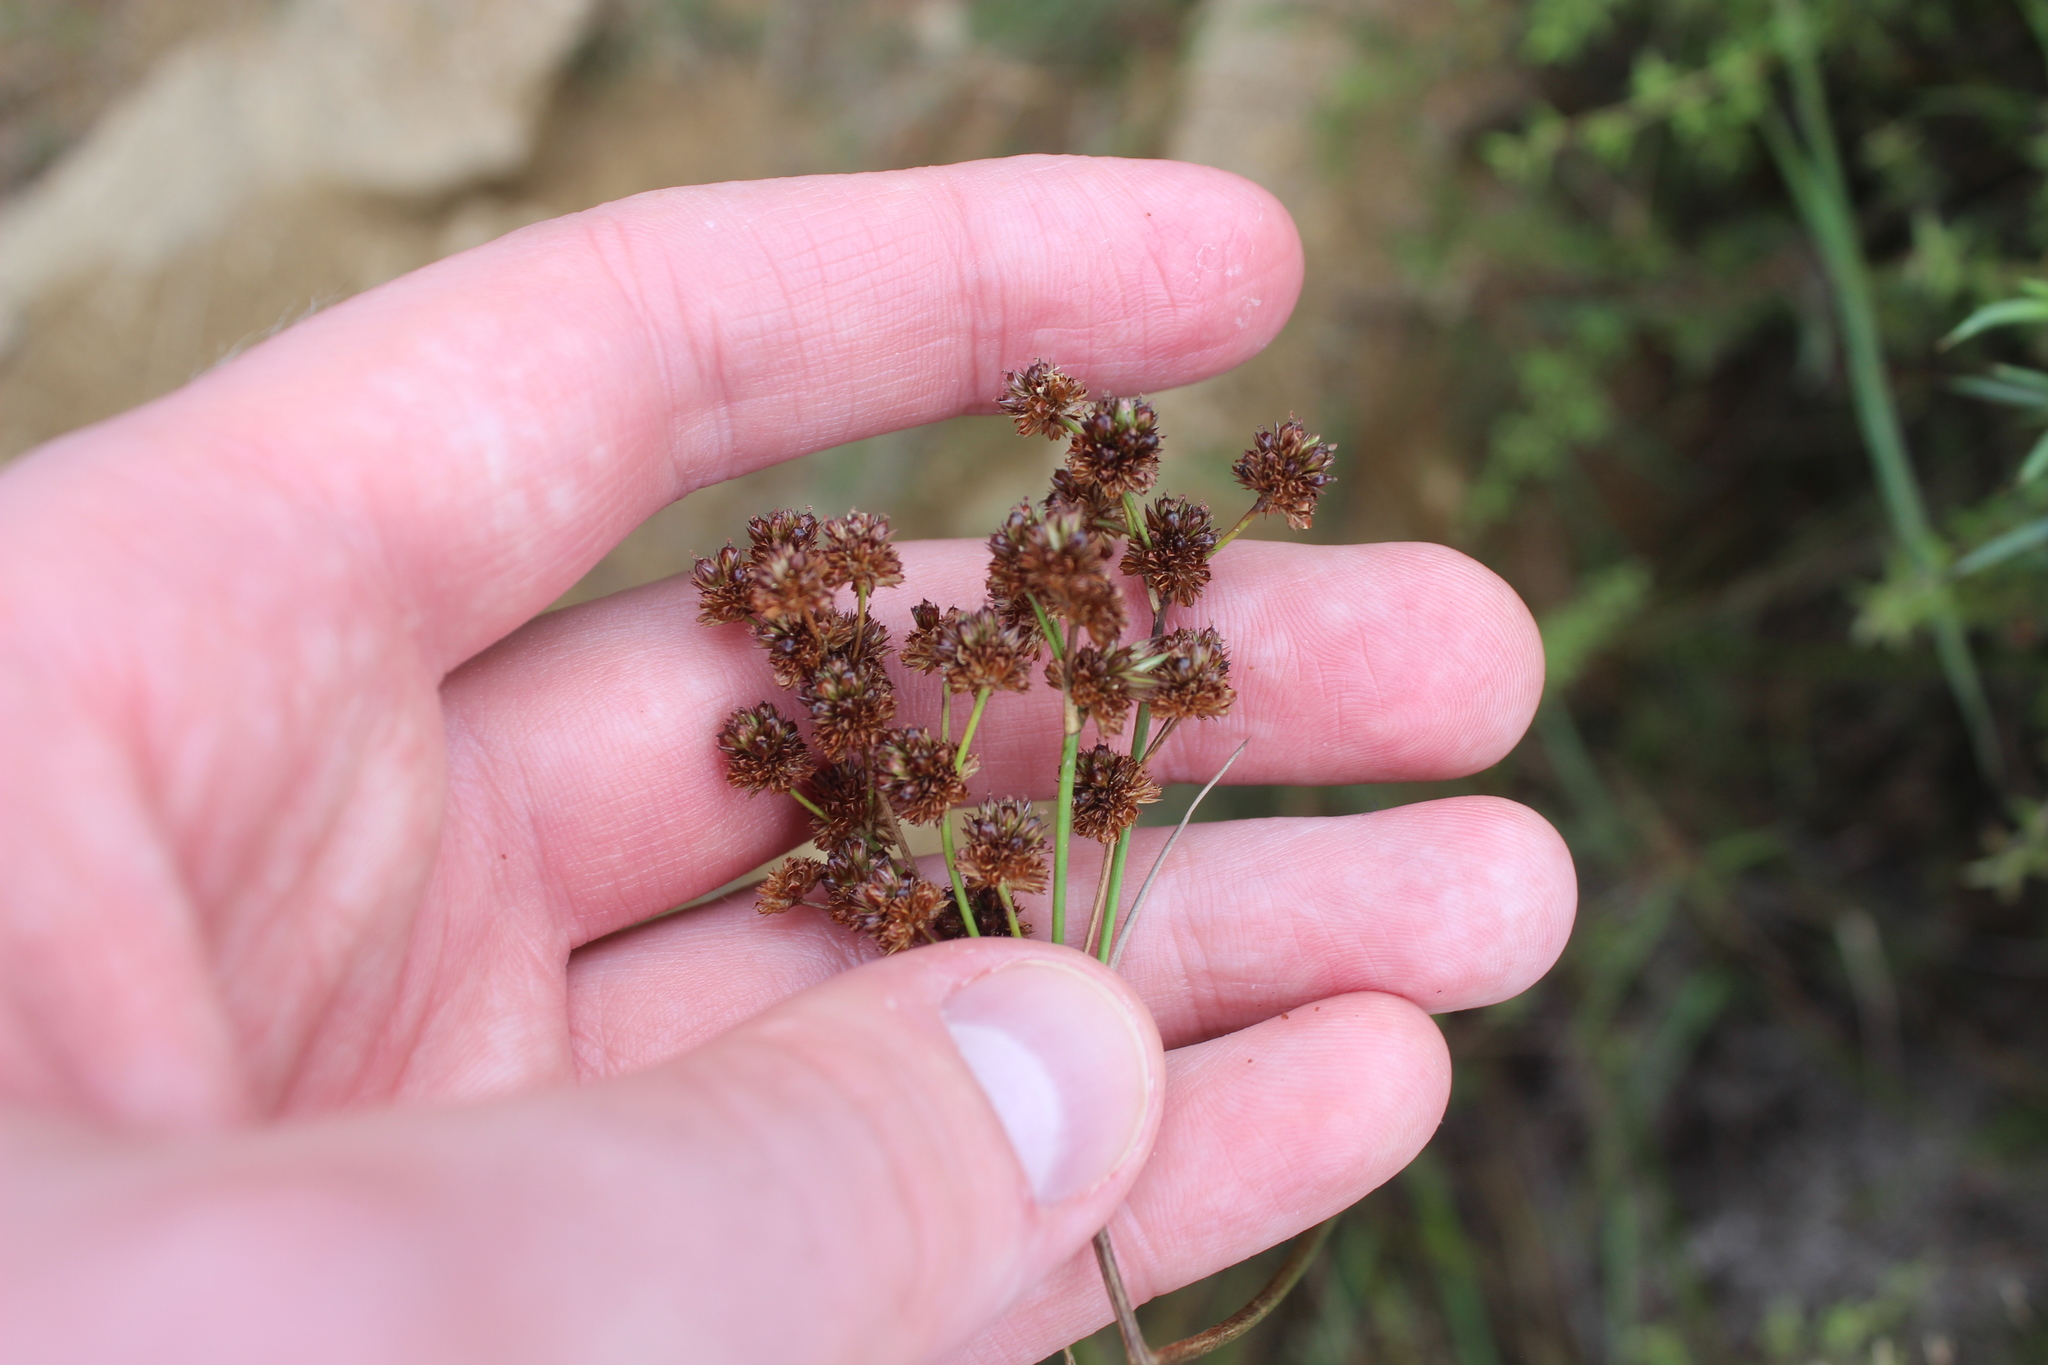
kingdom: Plantae
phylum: Tracheophyta
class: Liliopsida
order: Poales
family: Juncaceae
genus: Juncus
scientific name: Juncus planifolius
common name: Broadleaf rush
